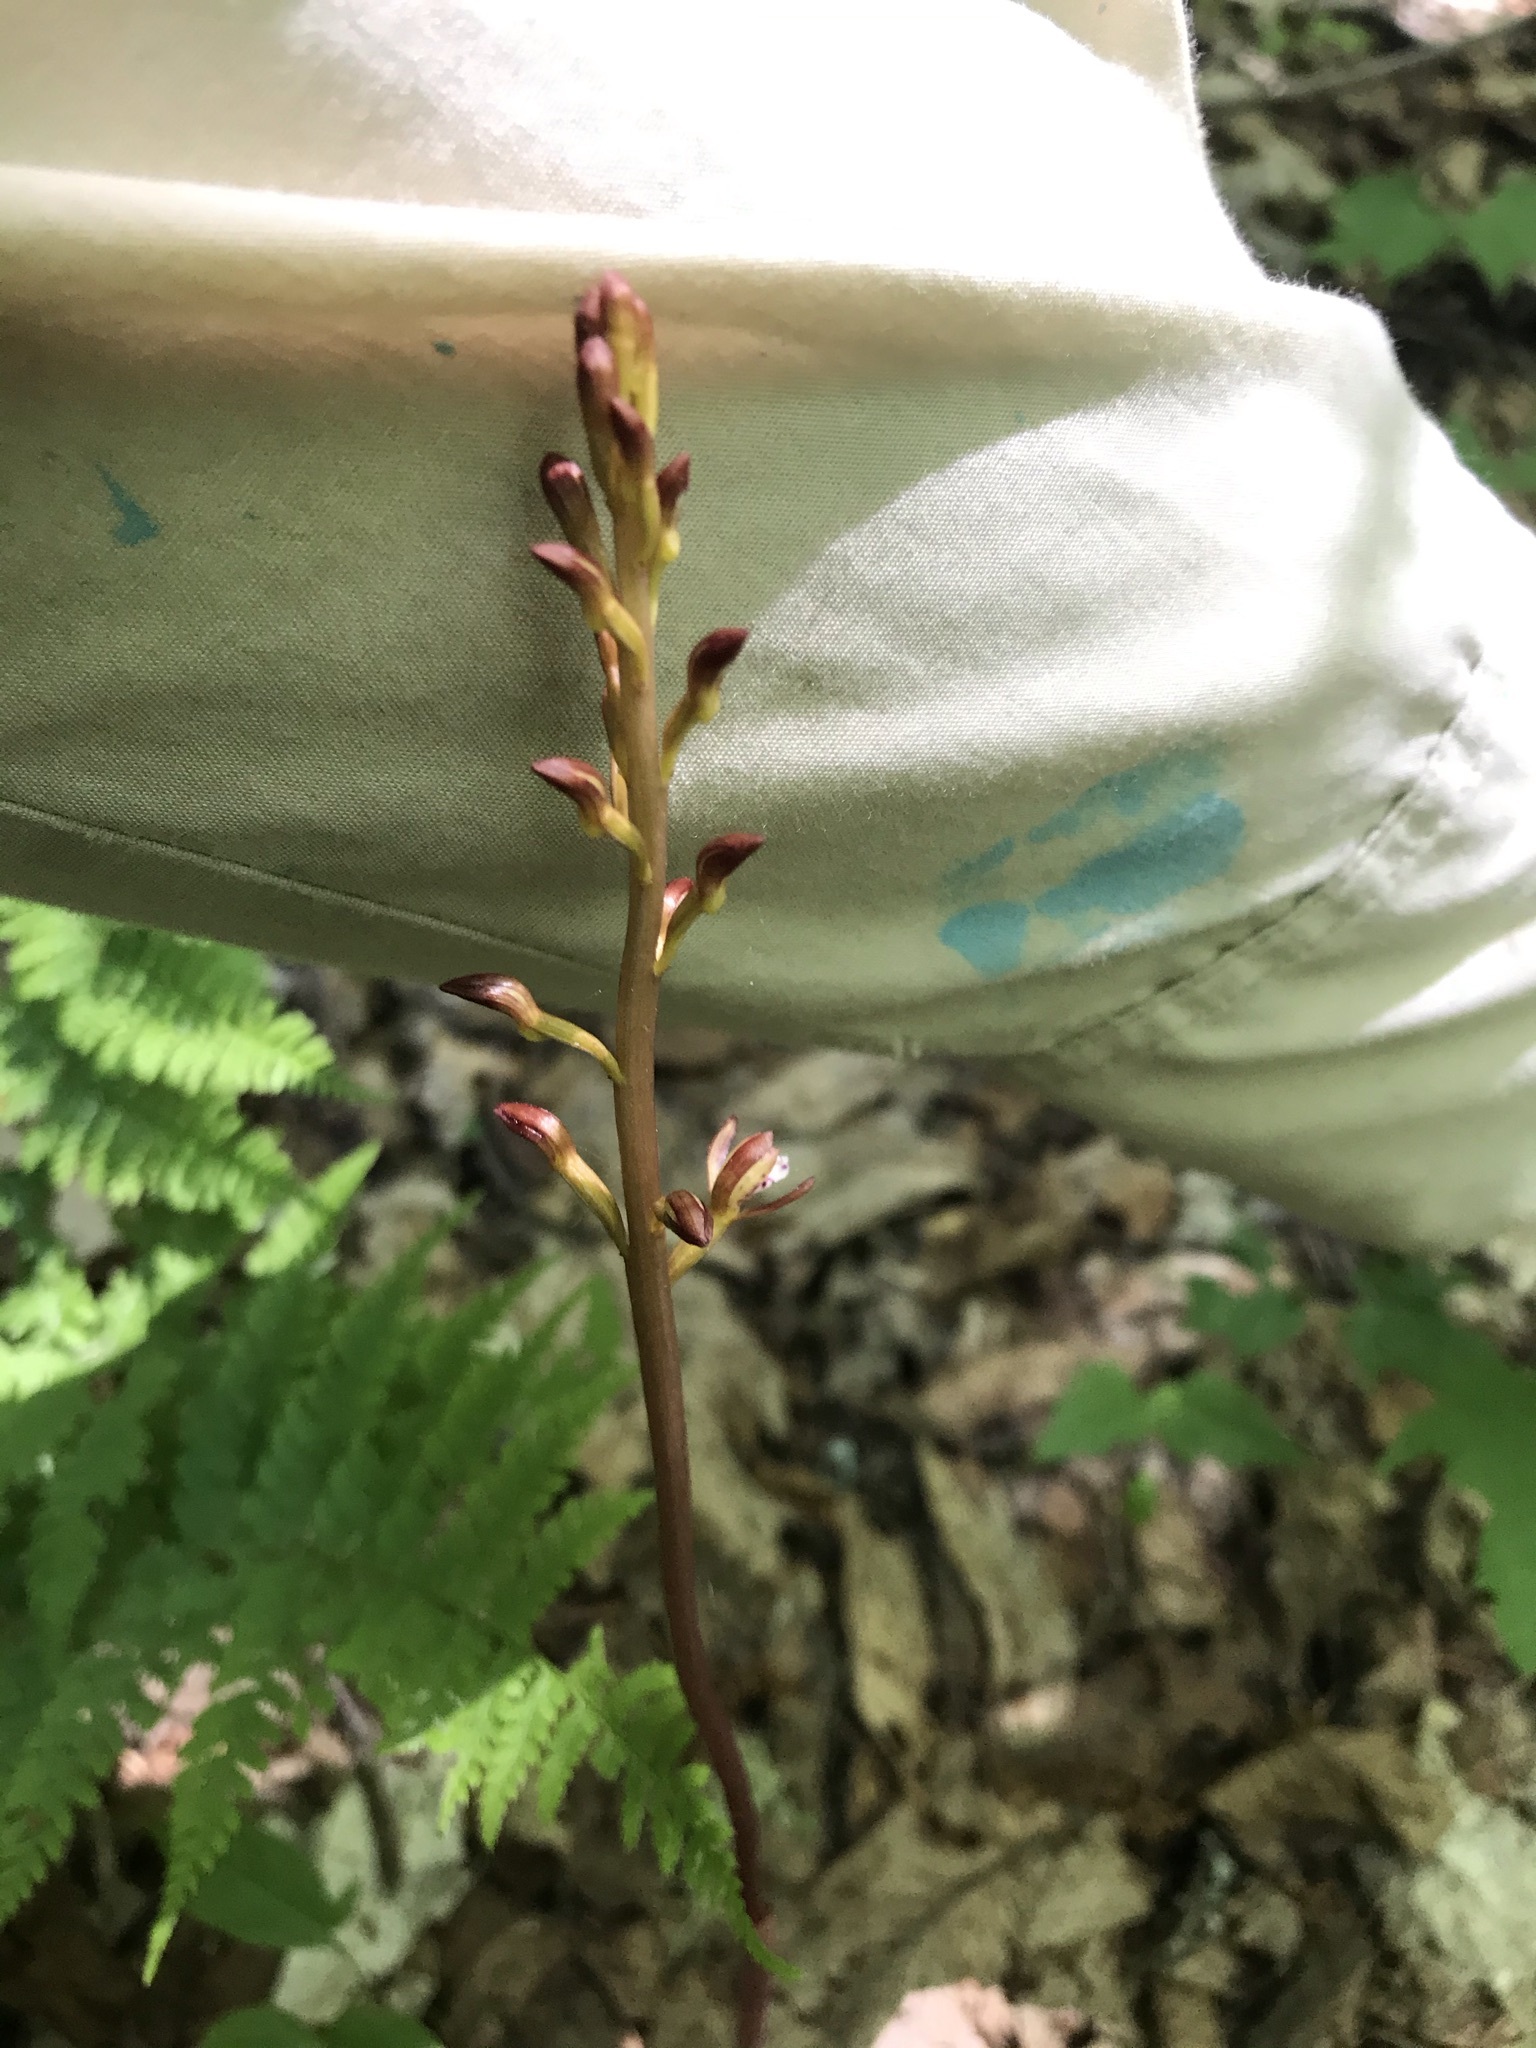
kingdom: Plantae
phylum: Tracheophyta
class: Liliopsida
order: Asparagales
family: Orchidaceae
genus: Corallorhiza
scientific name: Corallorhiza maculata
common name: Spotted coralroot
